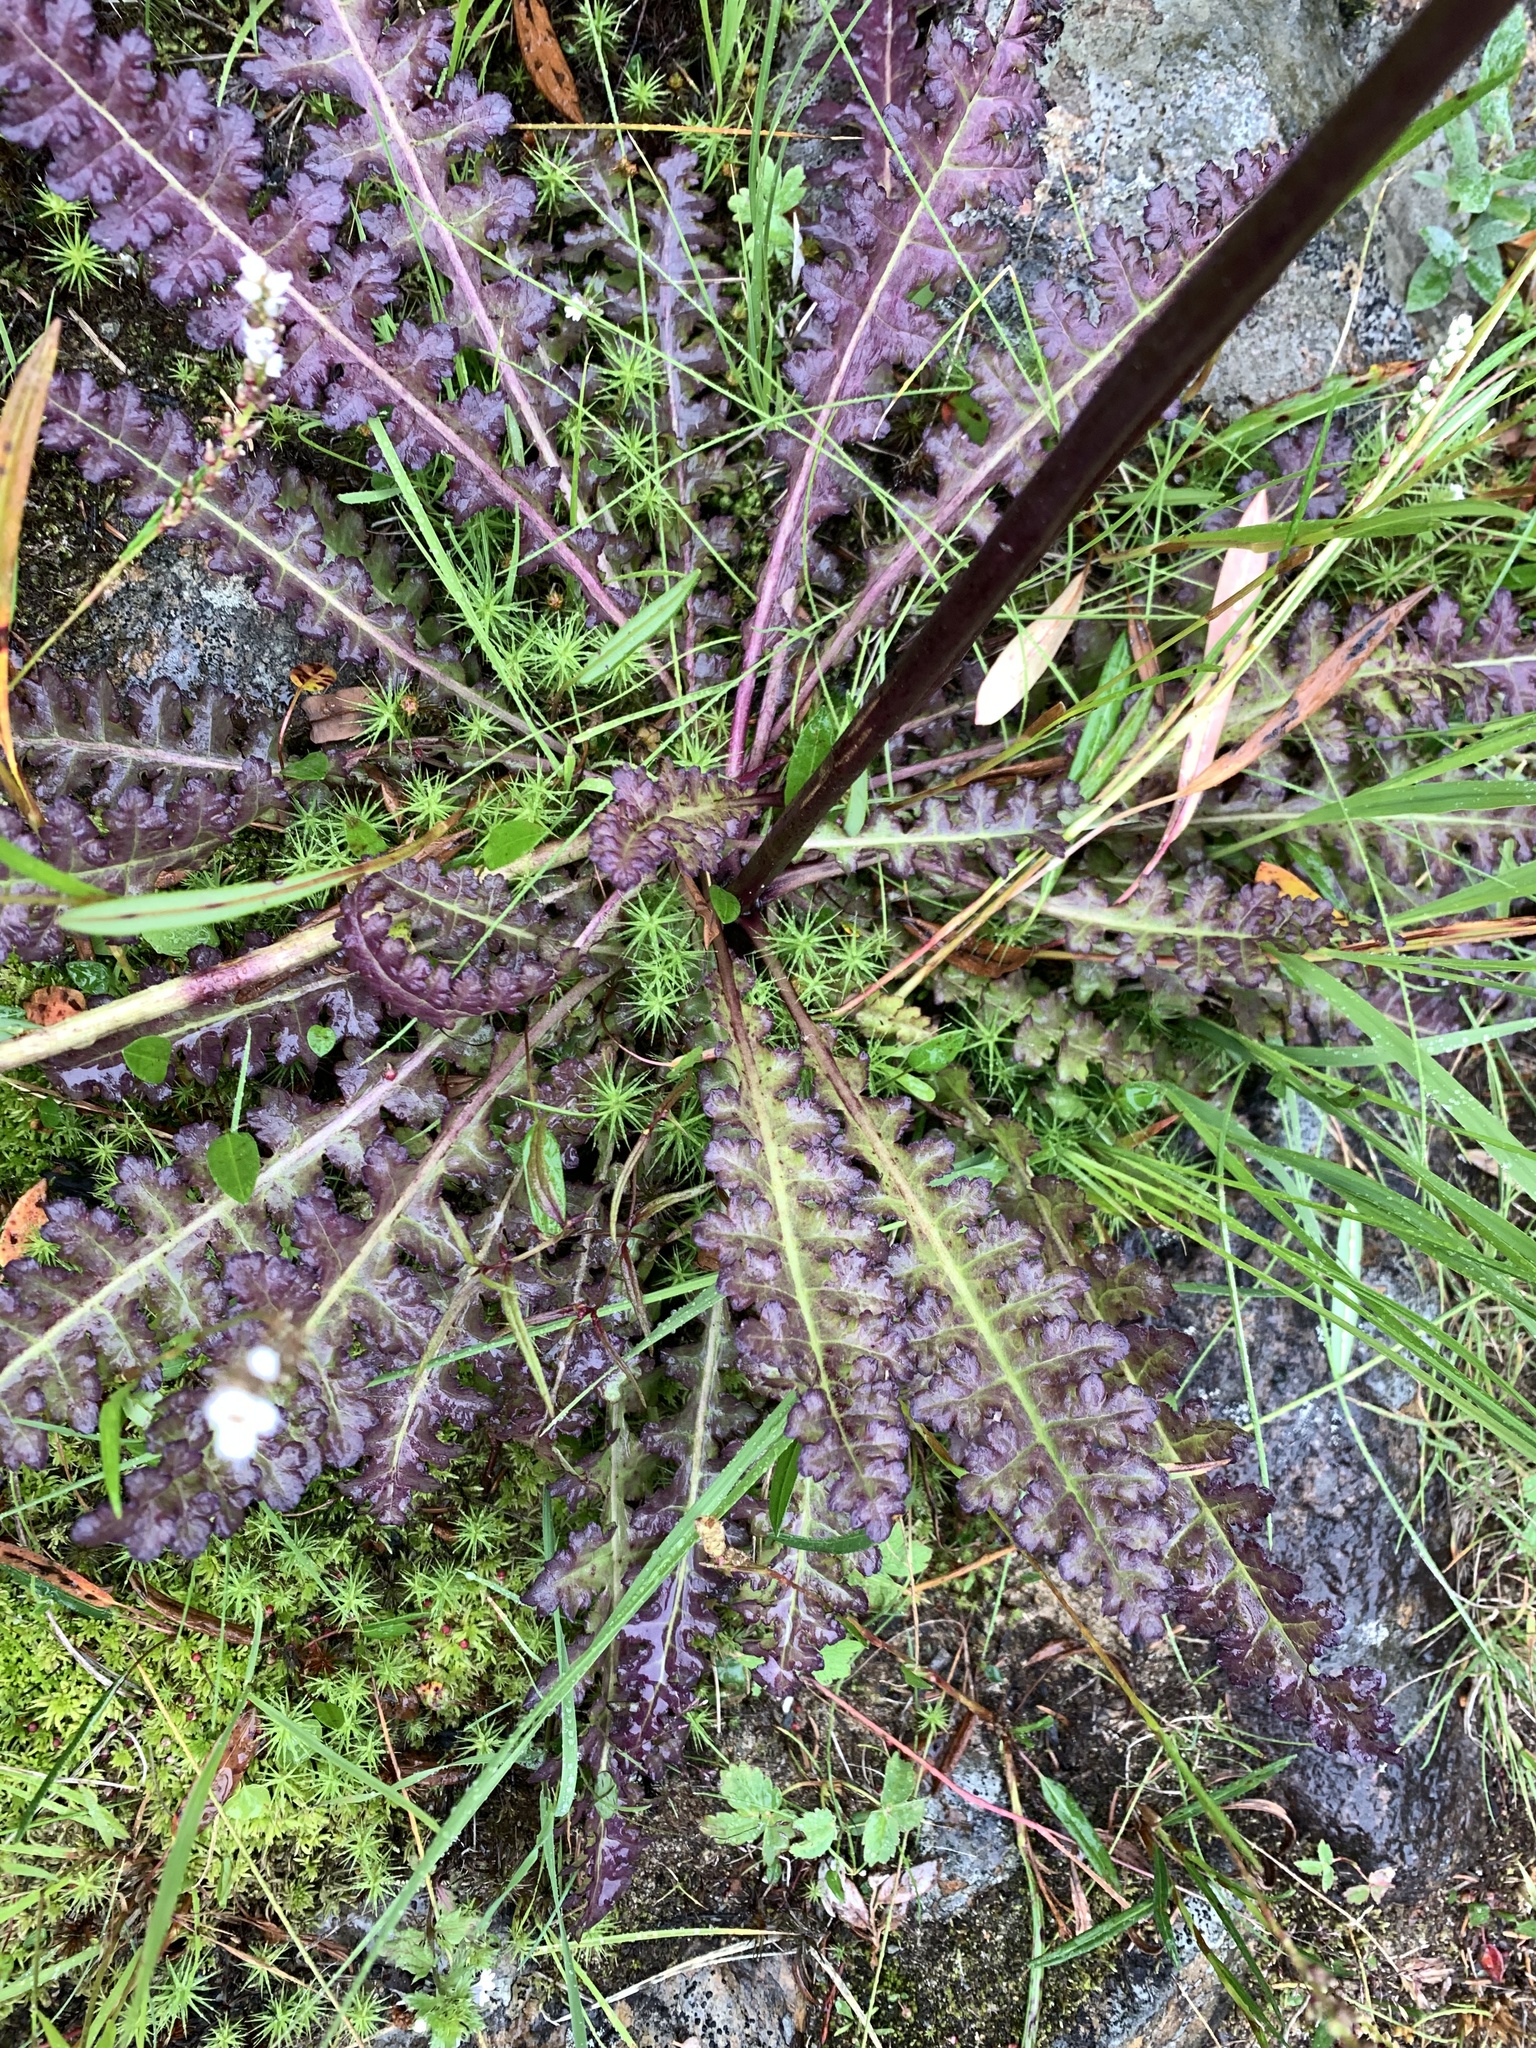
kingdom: Plantae
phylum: Tracheophyta
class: Magnoliopsida
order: Lamiales
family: Orobanchaceae
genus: Pedicularis
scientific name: Pedicularis sceptrum-carolinum
